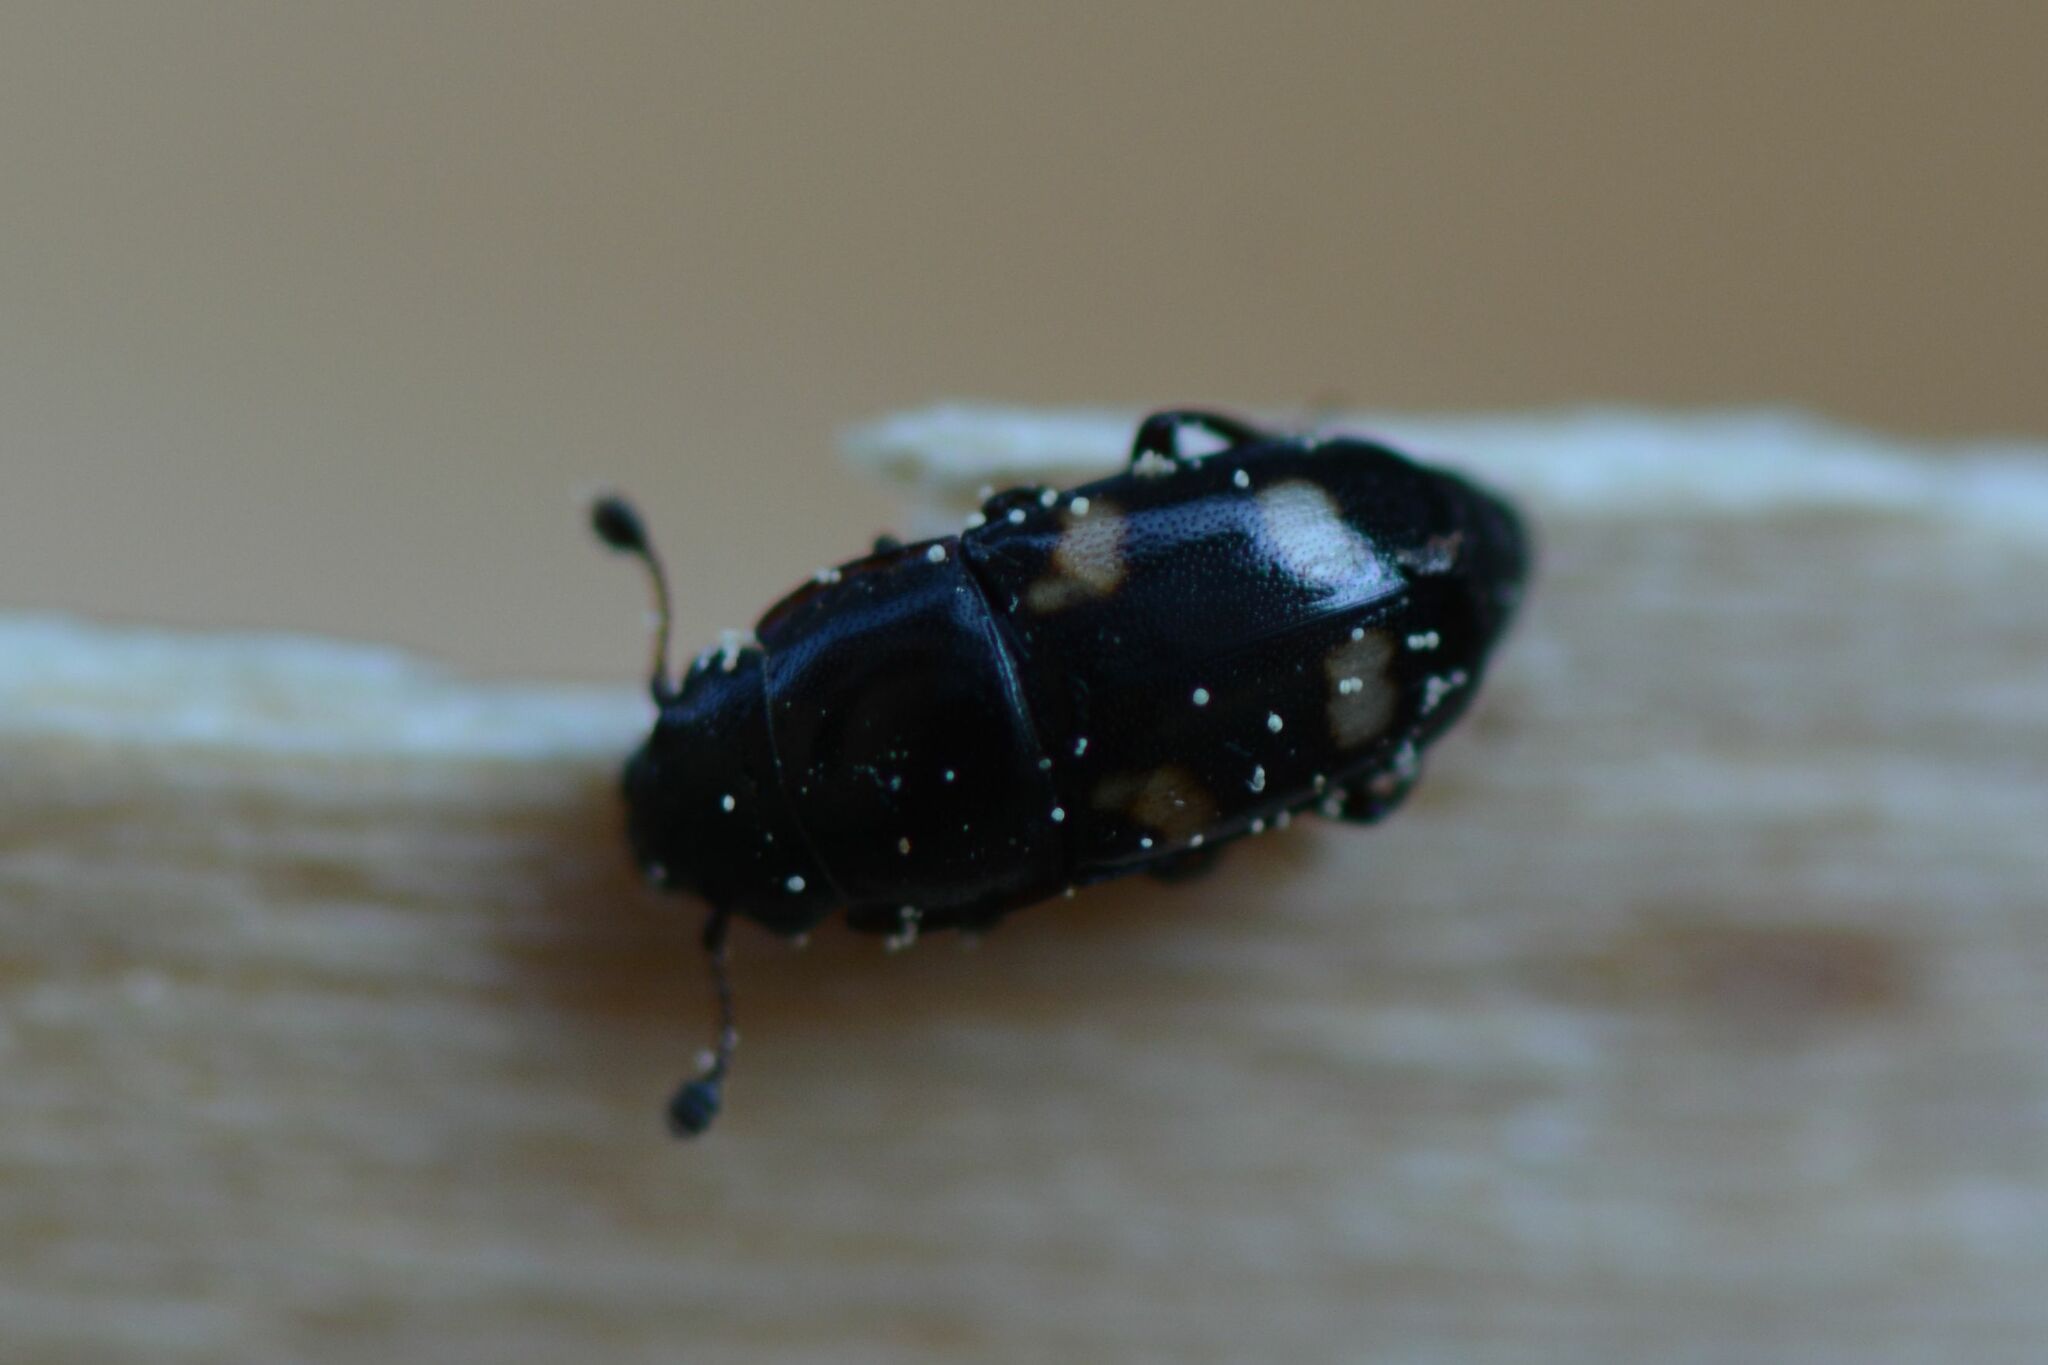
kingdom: Animalia
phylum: Arthropoda
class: Insecta
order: Coleoptera
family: Nitidulidae
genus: Glischrochilus
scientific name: Glischrochilus quadrisignatus
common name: Picnic beetle
